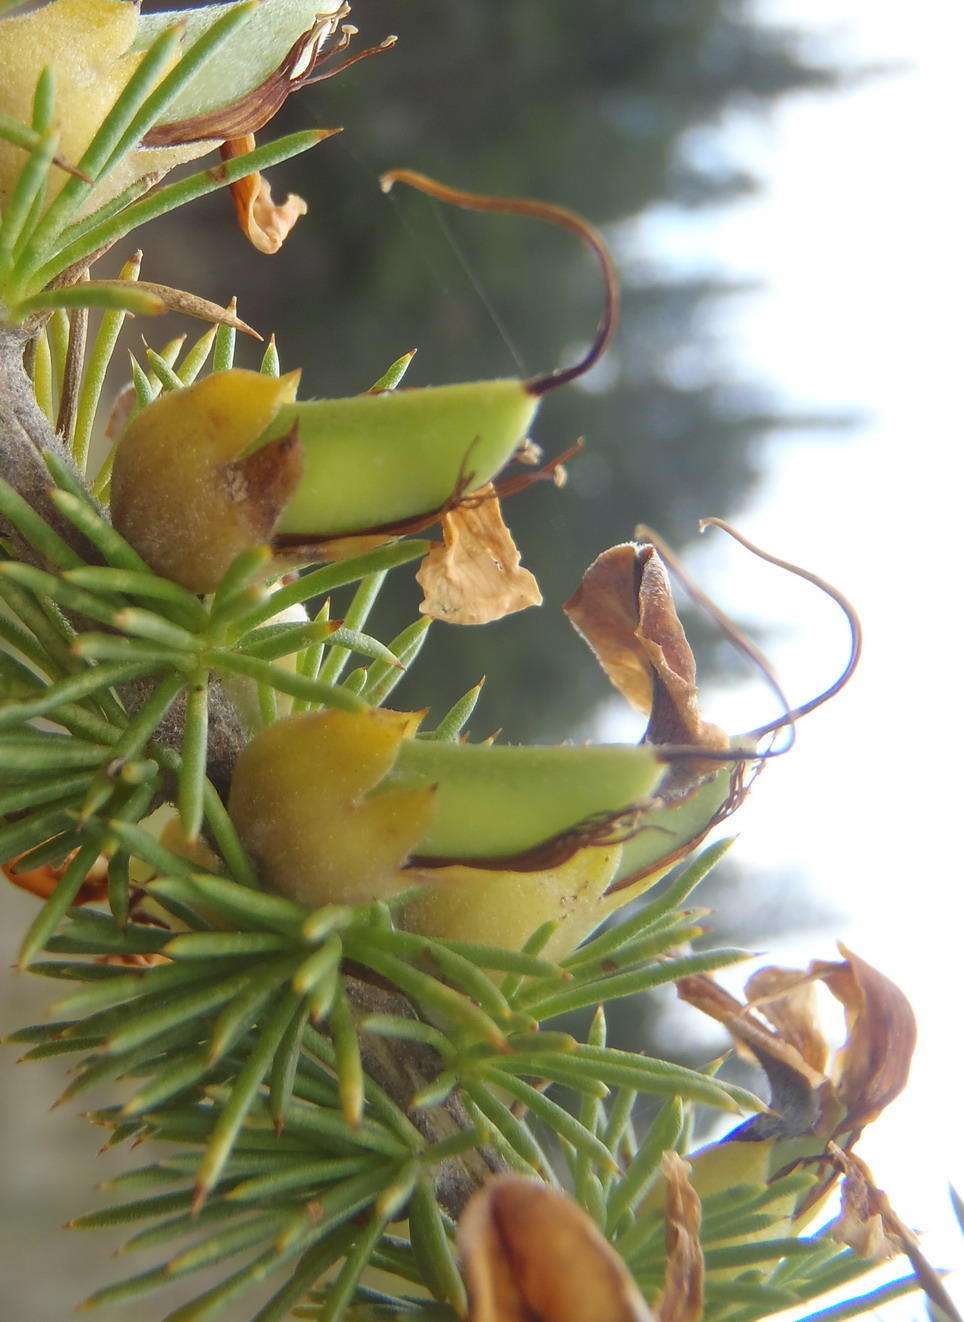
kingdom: Plantae
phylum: Tracheophyta
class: Magnoliopsida
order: Fabales
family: Fabaceae
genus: Aspalathus
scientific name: Aspalathus sceptrumaureum
